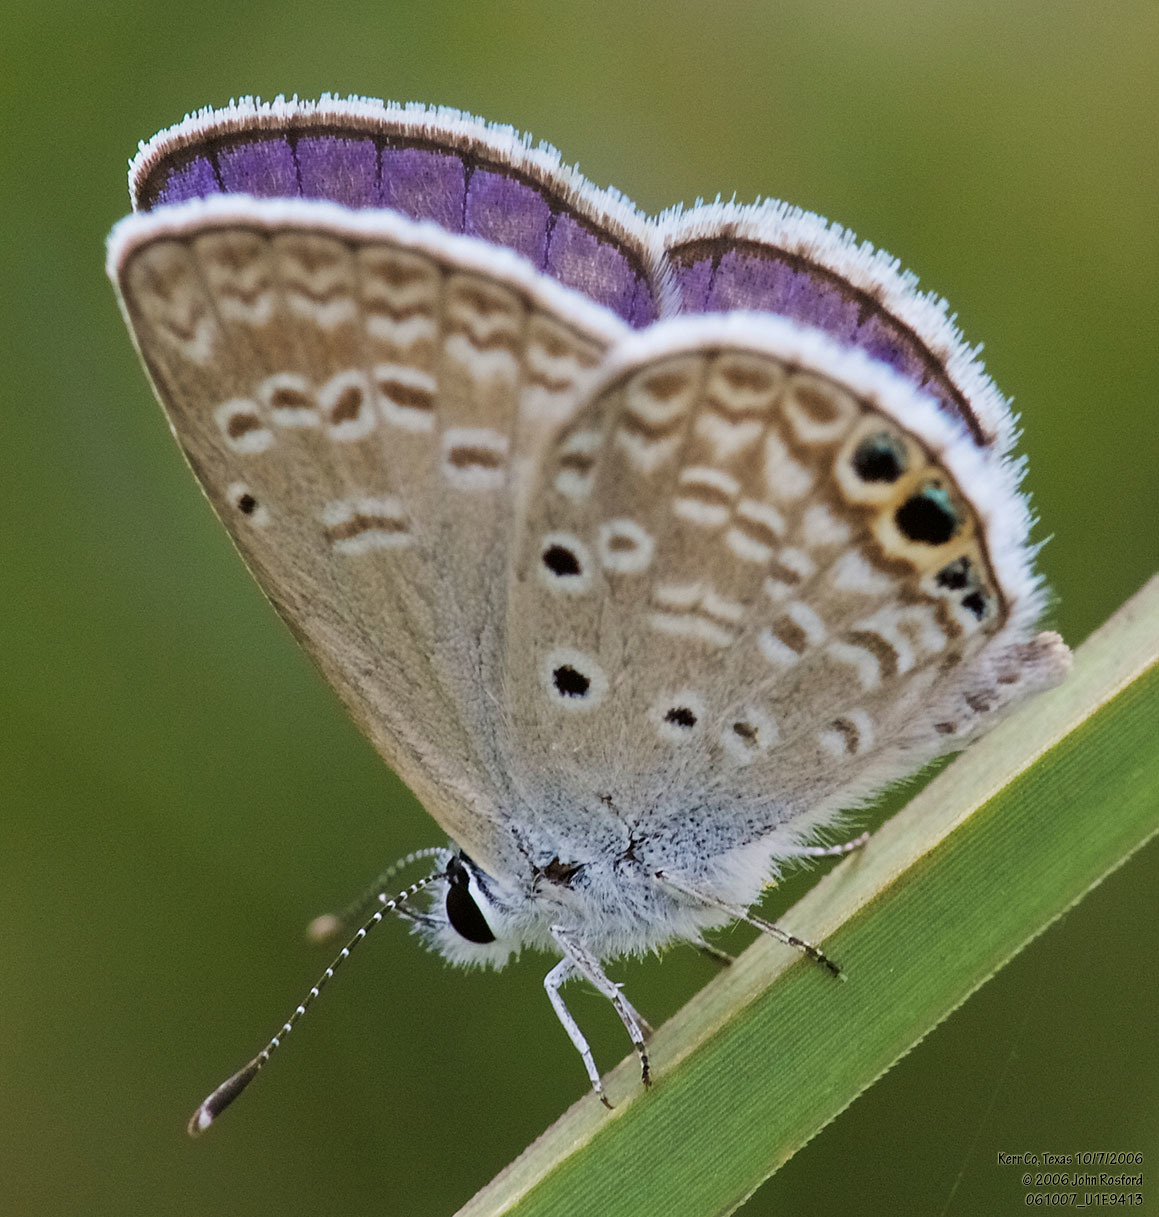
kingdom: Animalia
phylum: Arthropoda
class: Insecta
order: Lepidoptera
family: Lycaenidae
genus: Hemiargus
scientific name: Hemiargus ceraunus
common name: Ceraunus blue
